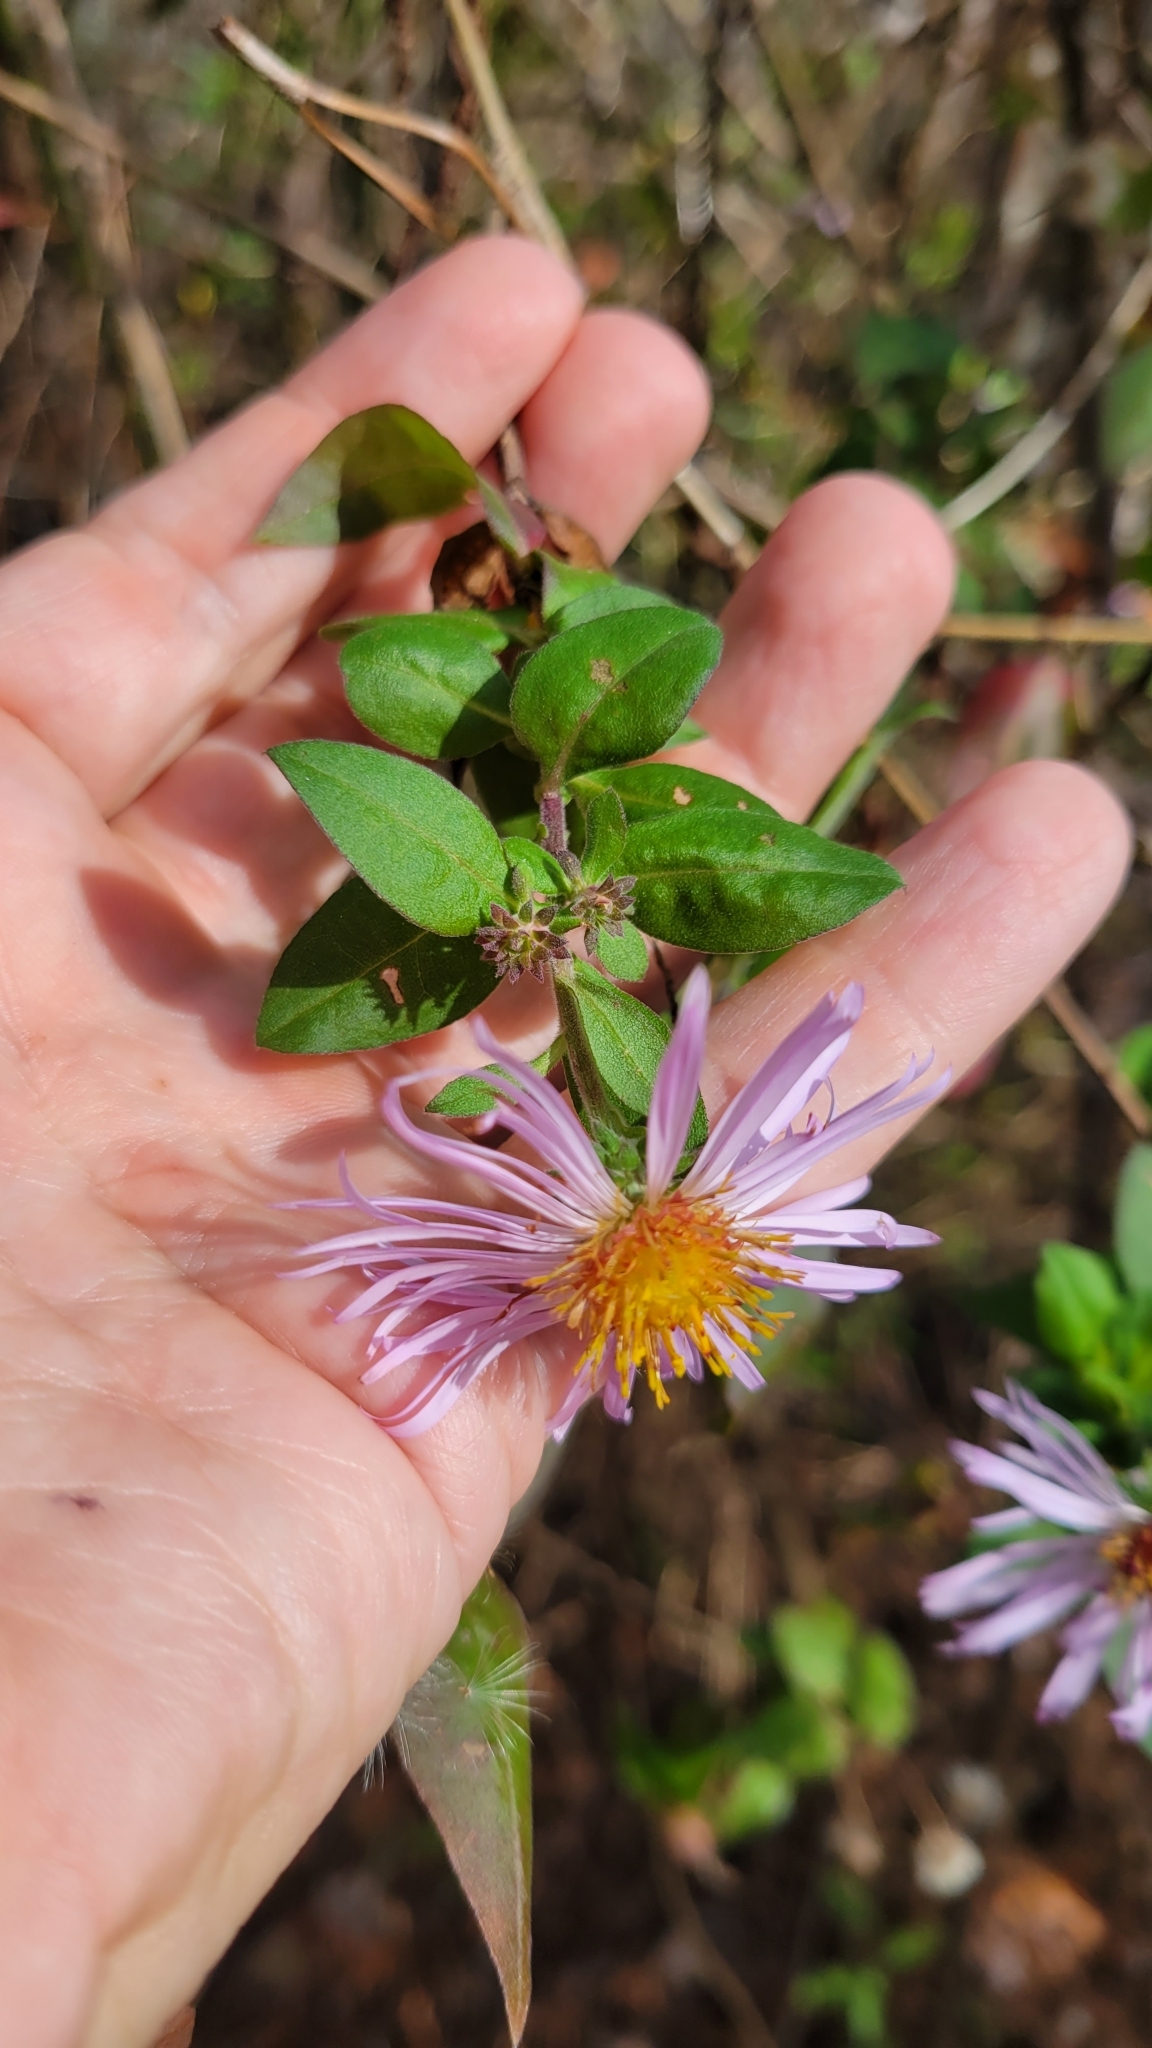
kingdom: Plantae
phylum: Tracheophyta
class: Magnoliopsida
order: Asterales
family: Asteraceae
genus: Ampelaster
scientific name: Ampelaster carolinianus
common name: Climbing aster
